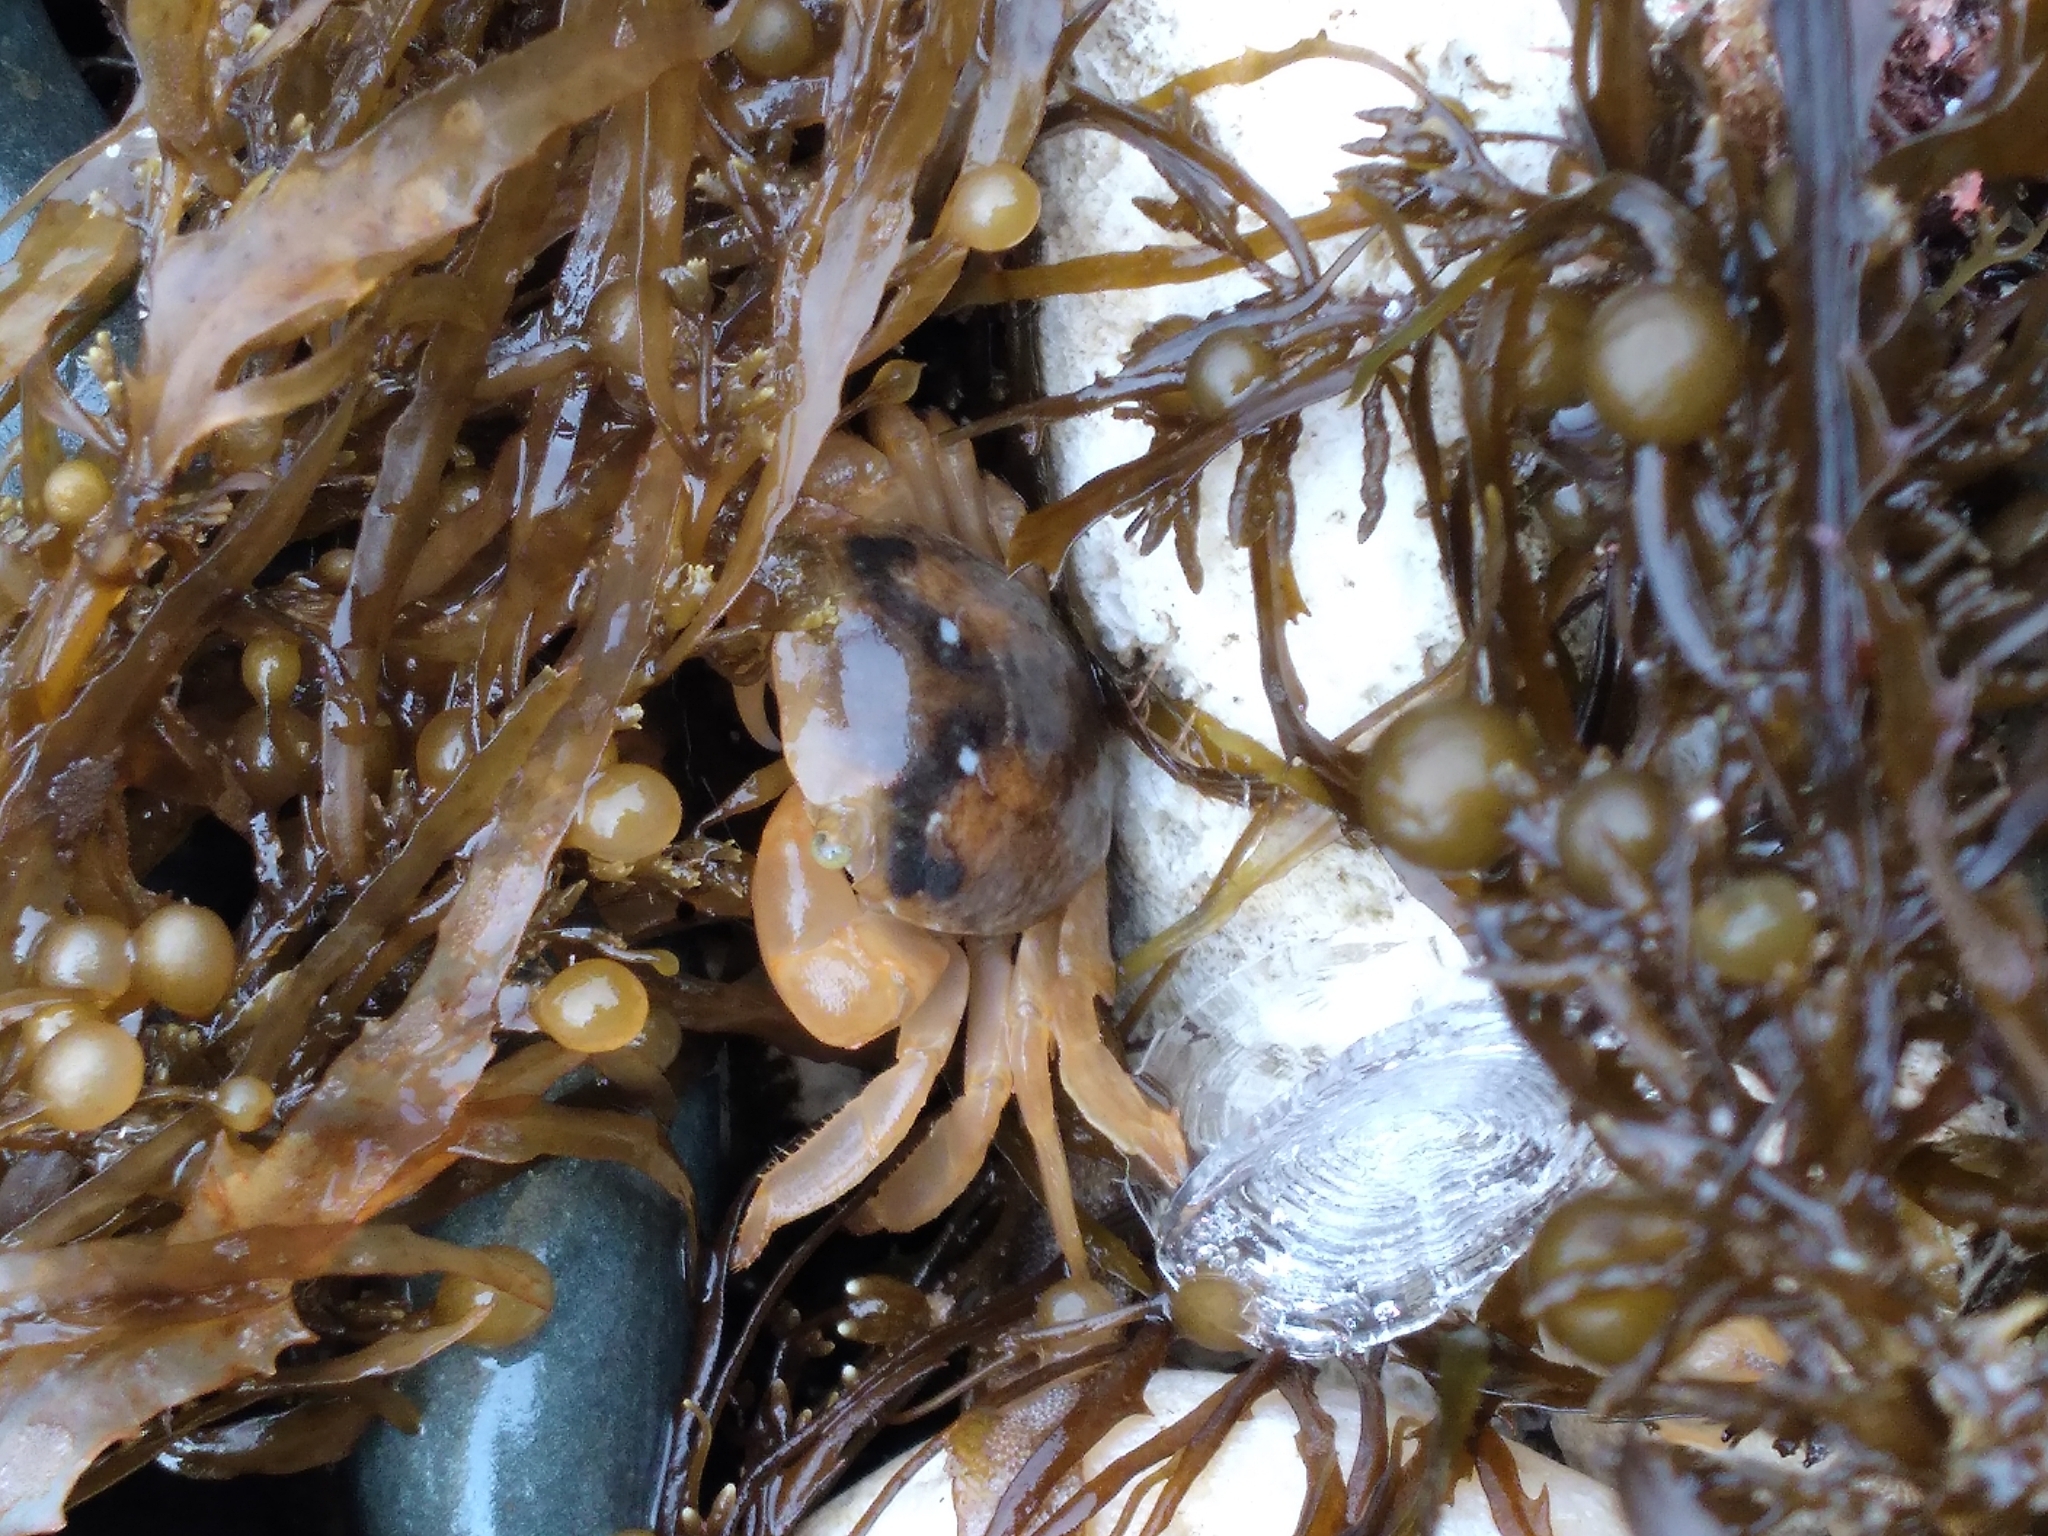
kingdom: Animalia
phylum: Arthropoda
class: Malacostraca
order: Decapoda
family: Grapsidae
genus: Planes
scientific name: Planes minutus
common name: Gulf weed crab
